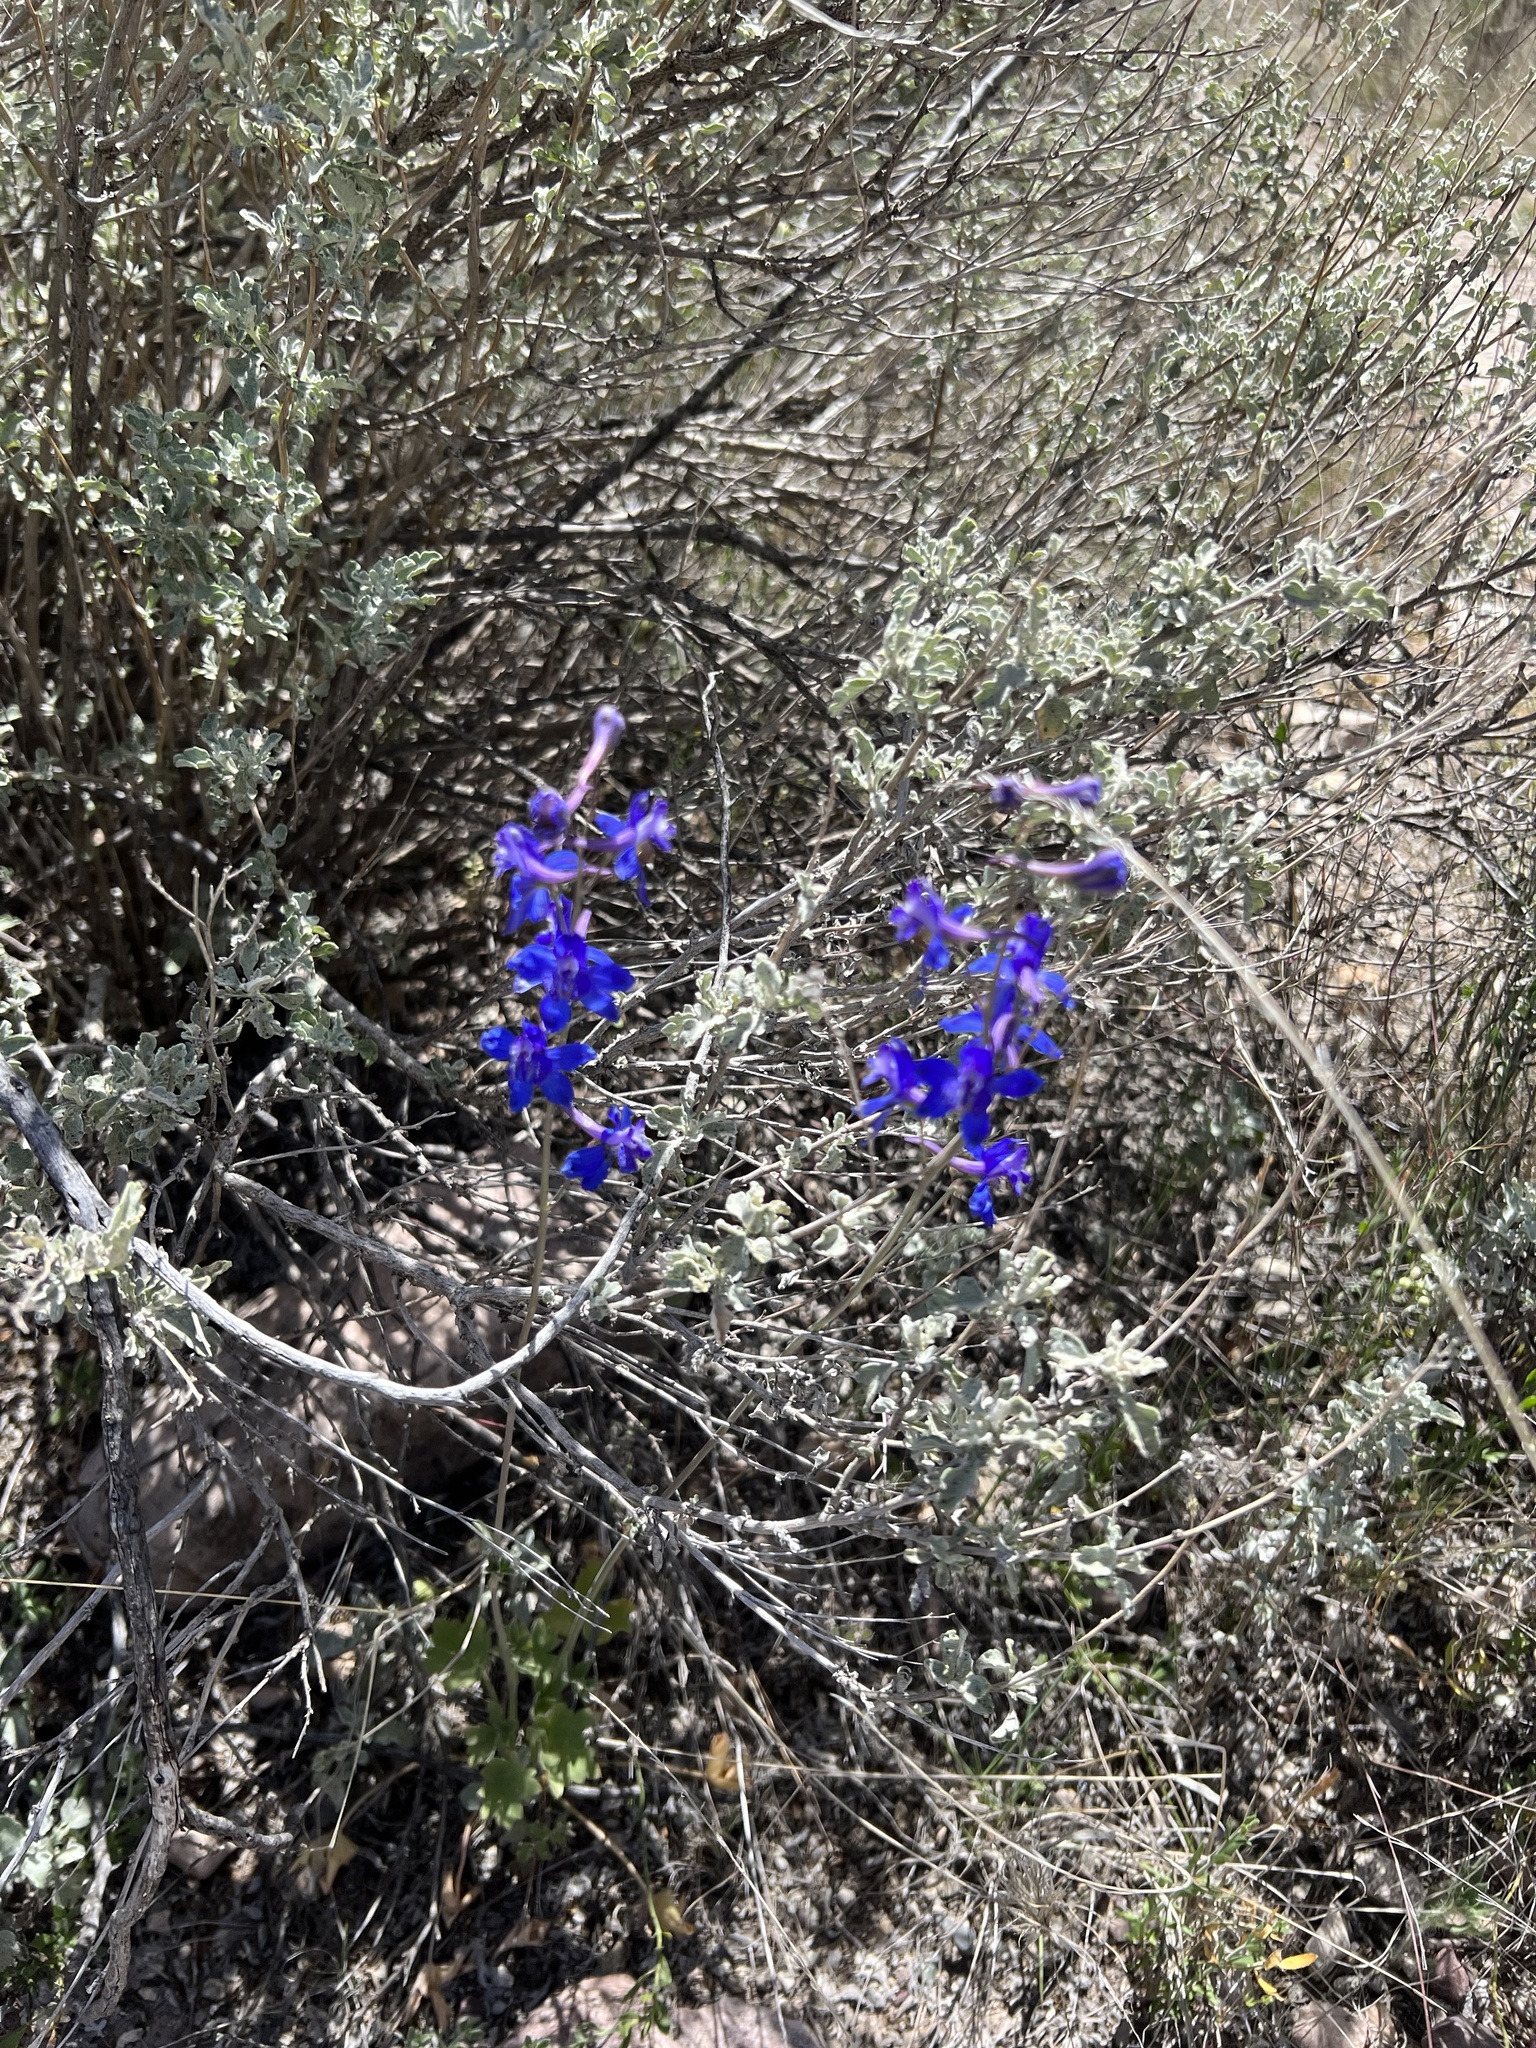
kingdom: Plantae
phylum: Tracheophyta
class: Magnoliopsida
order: Ranunculales
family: Ranunculaceae
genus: Delphinium
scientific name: Delphinium scaposum
